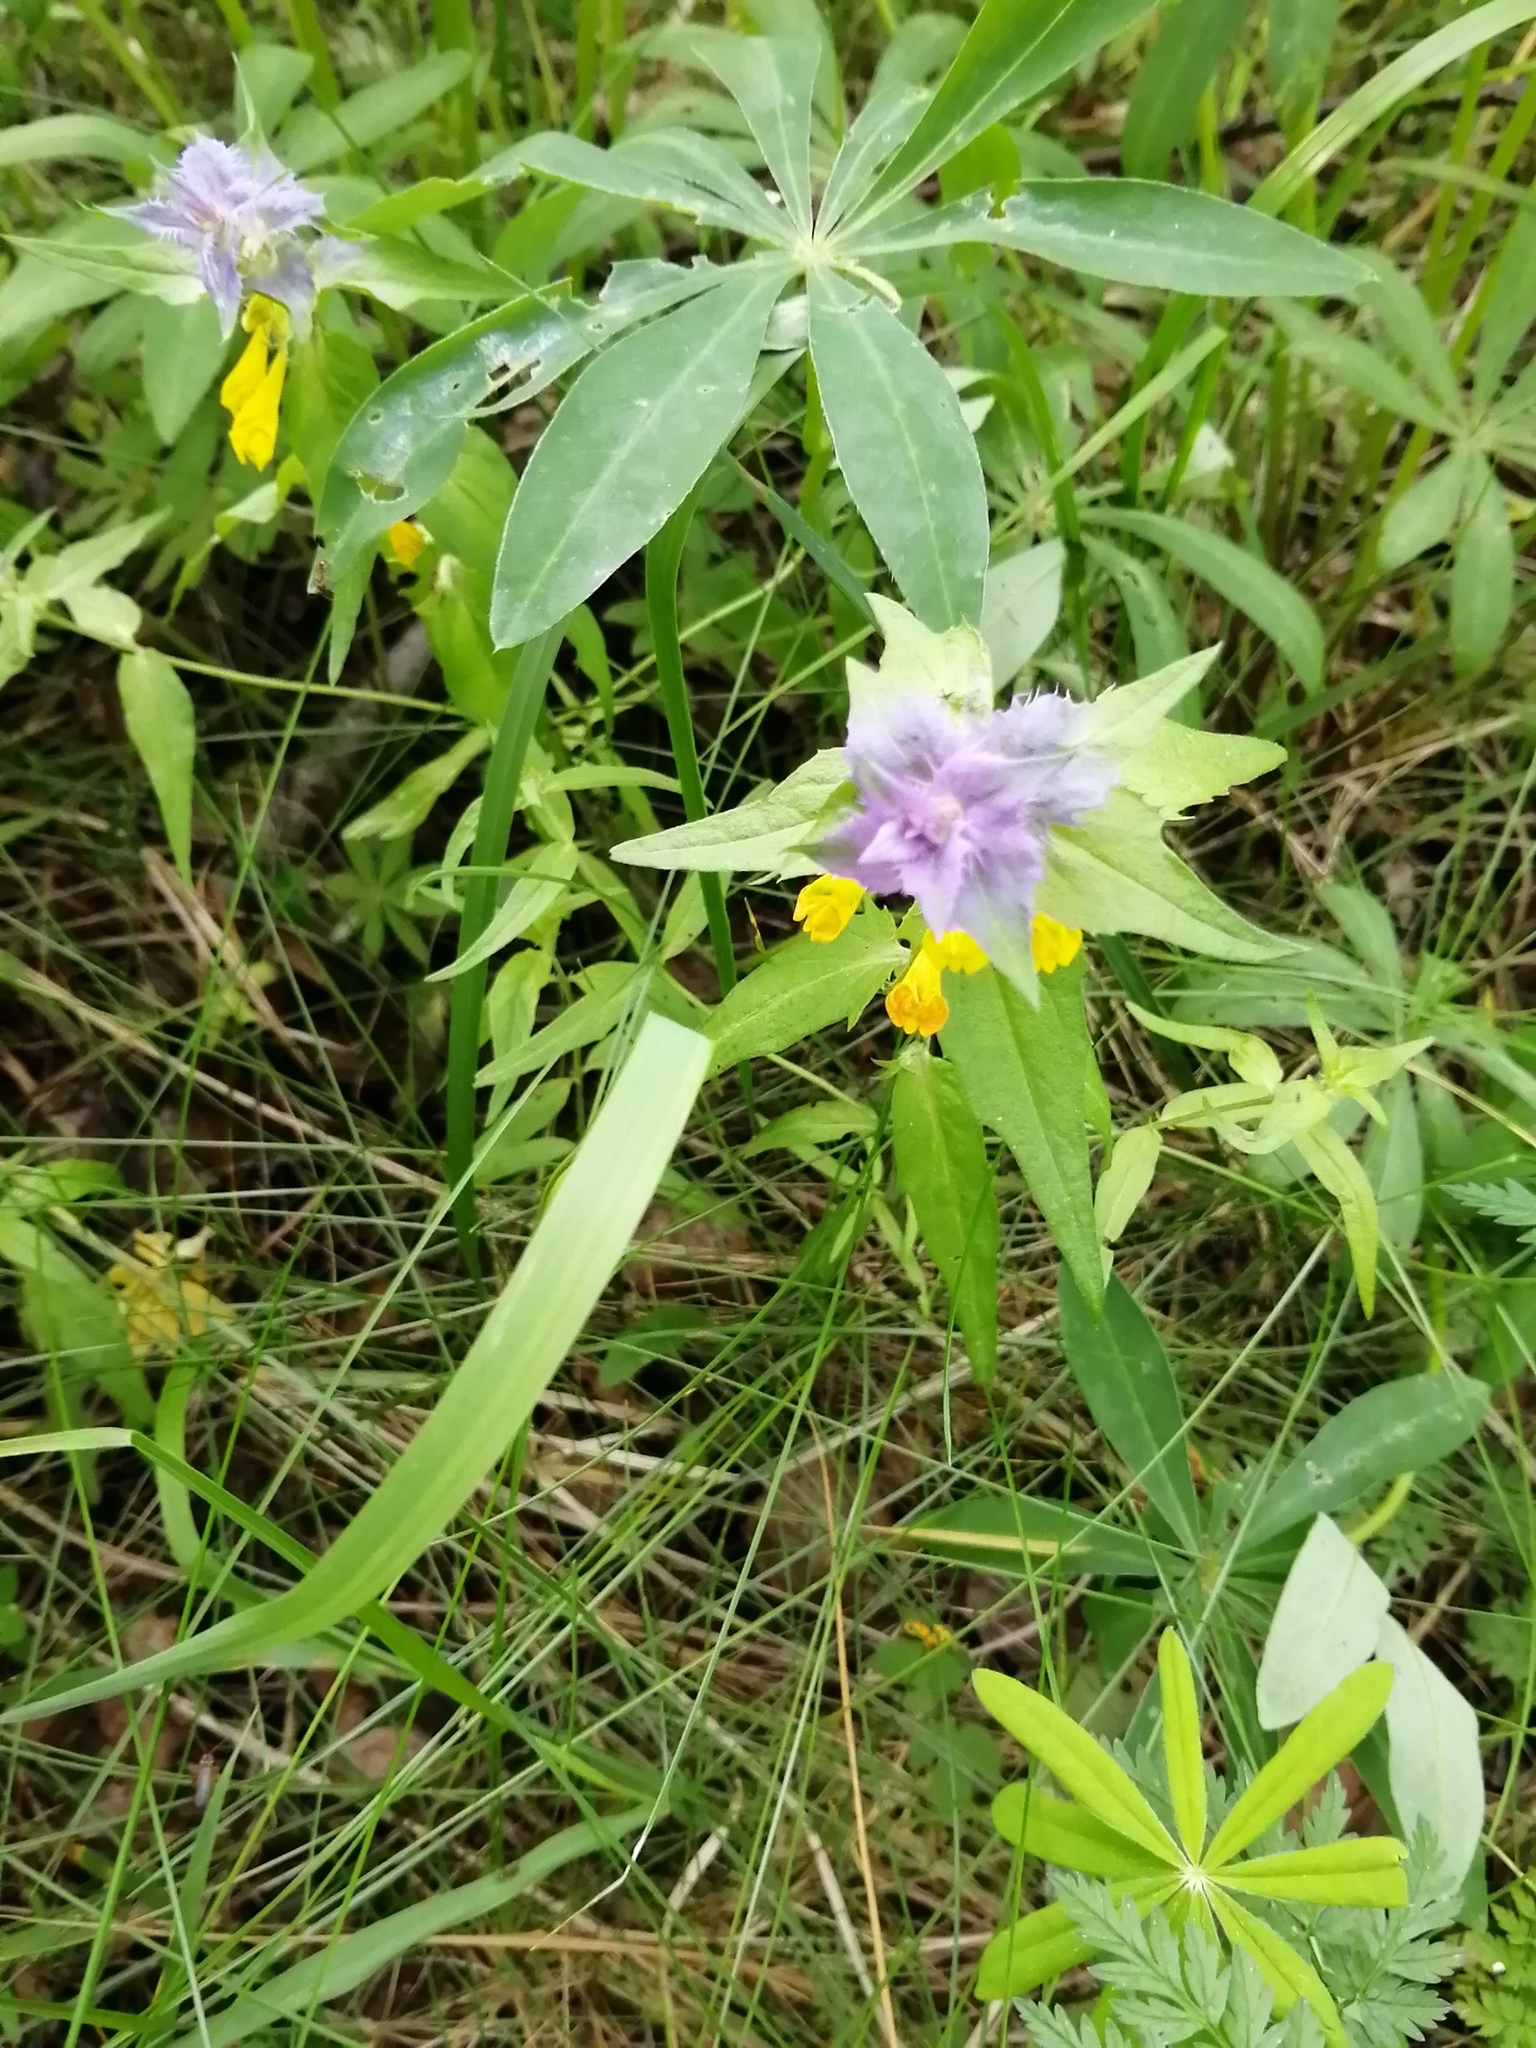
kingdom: Plantae
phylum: Tracheophyta
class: Magnoliopsida
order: Lamiales
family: Orobanchaceae
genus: Melampyrum
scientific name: Melampyrum nemorosum
